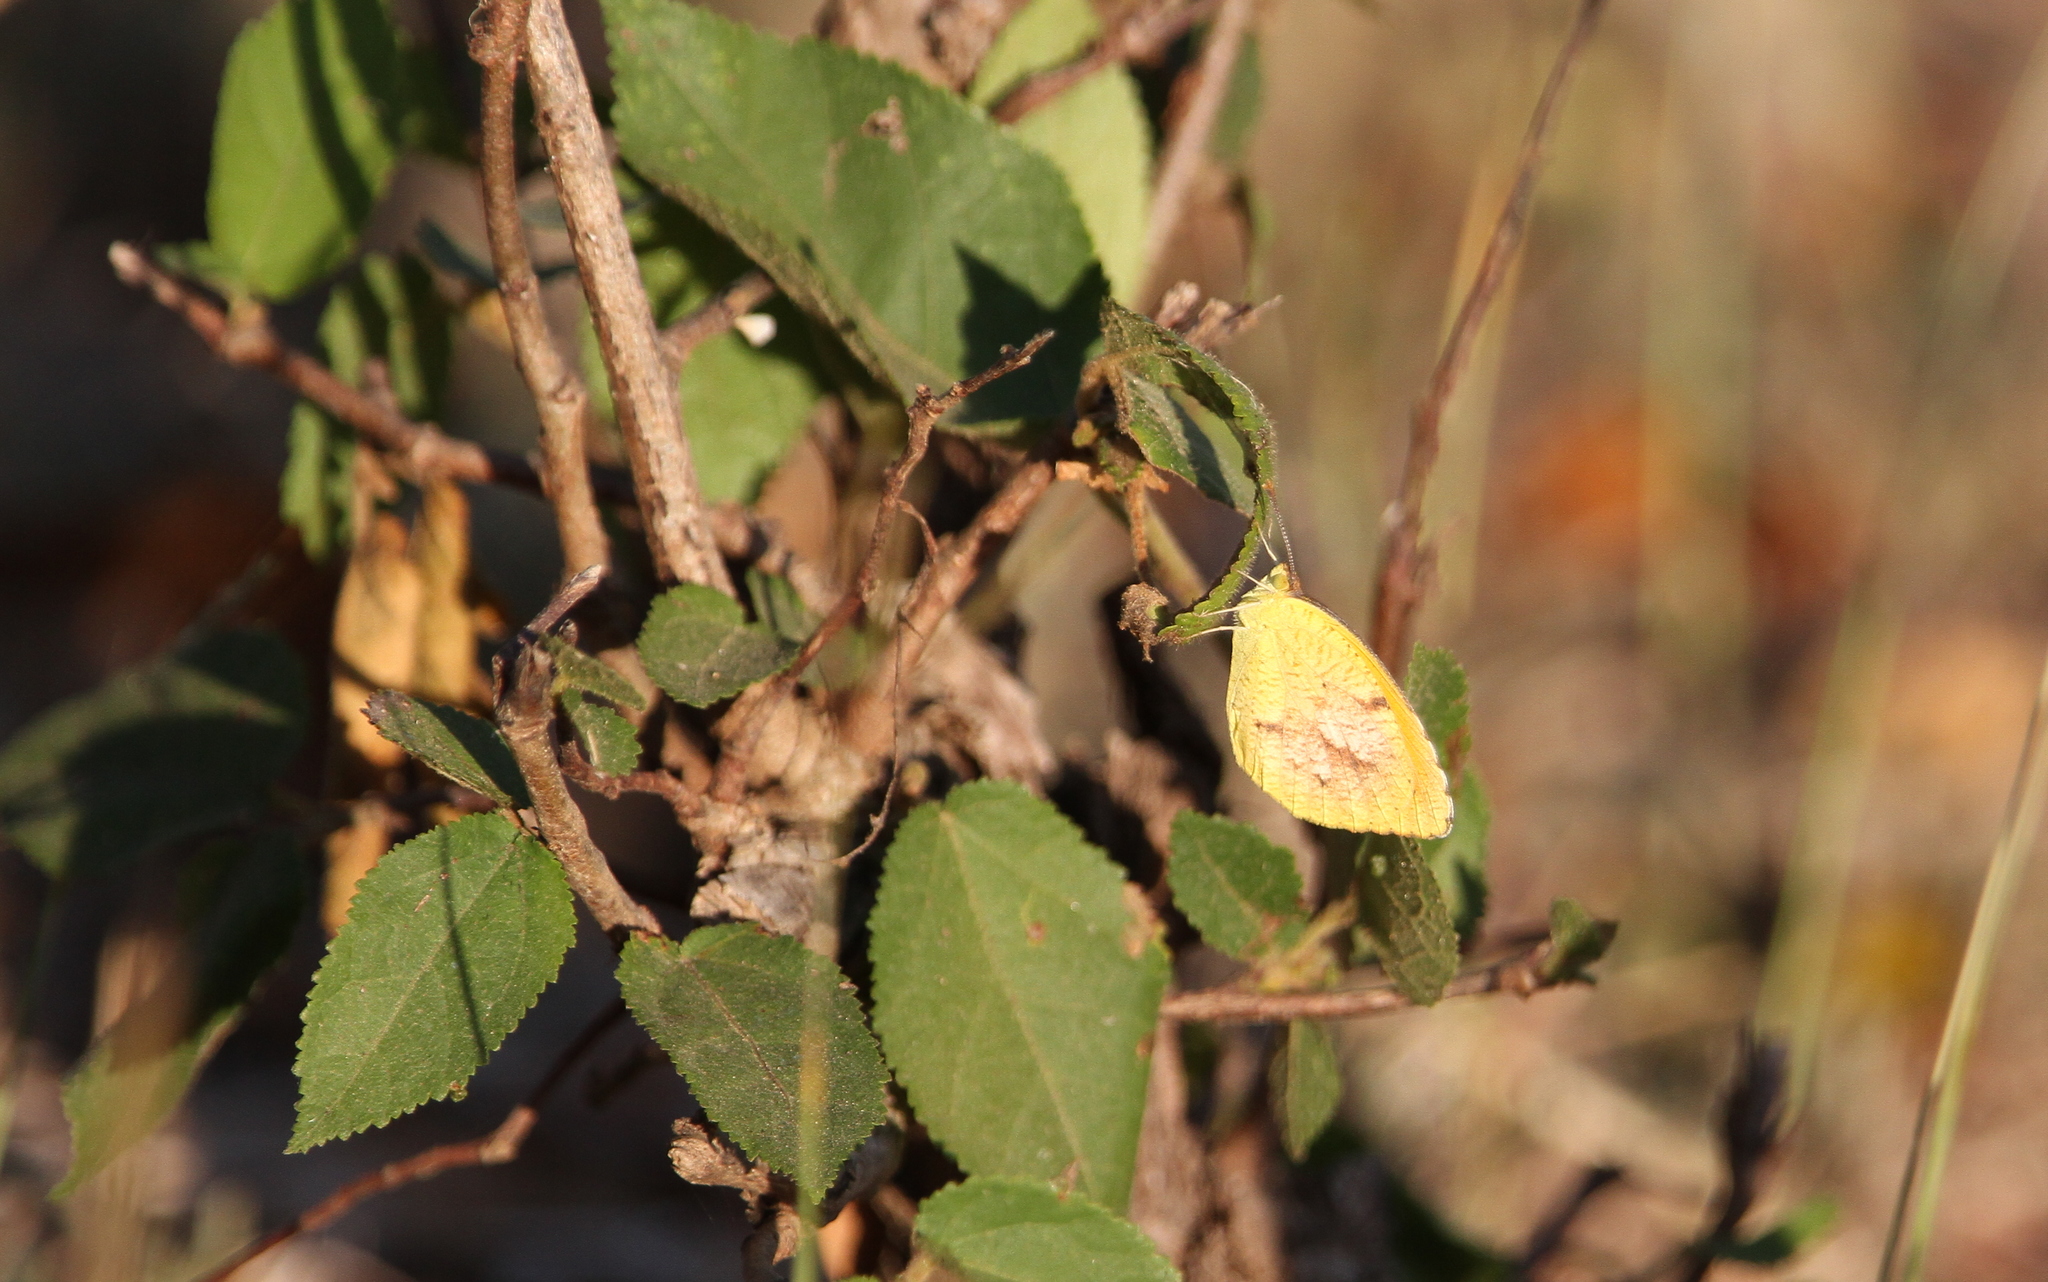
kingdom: Animalia
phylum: Arthropoda
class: Insecta
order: Lepidoptera
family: Pieridae
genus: Abaeis
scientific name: Abaeis nicippe
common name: Sleepy orange
